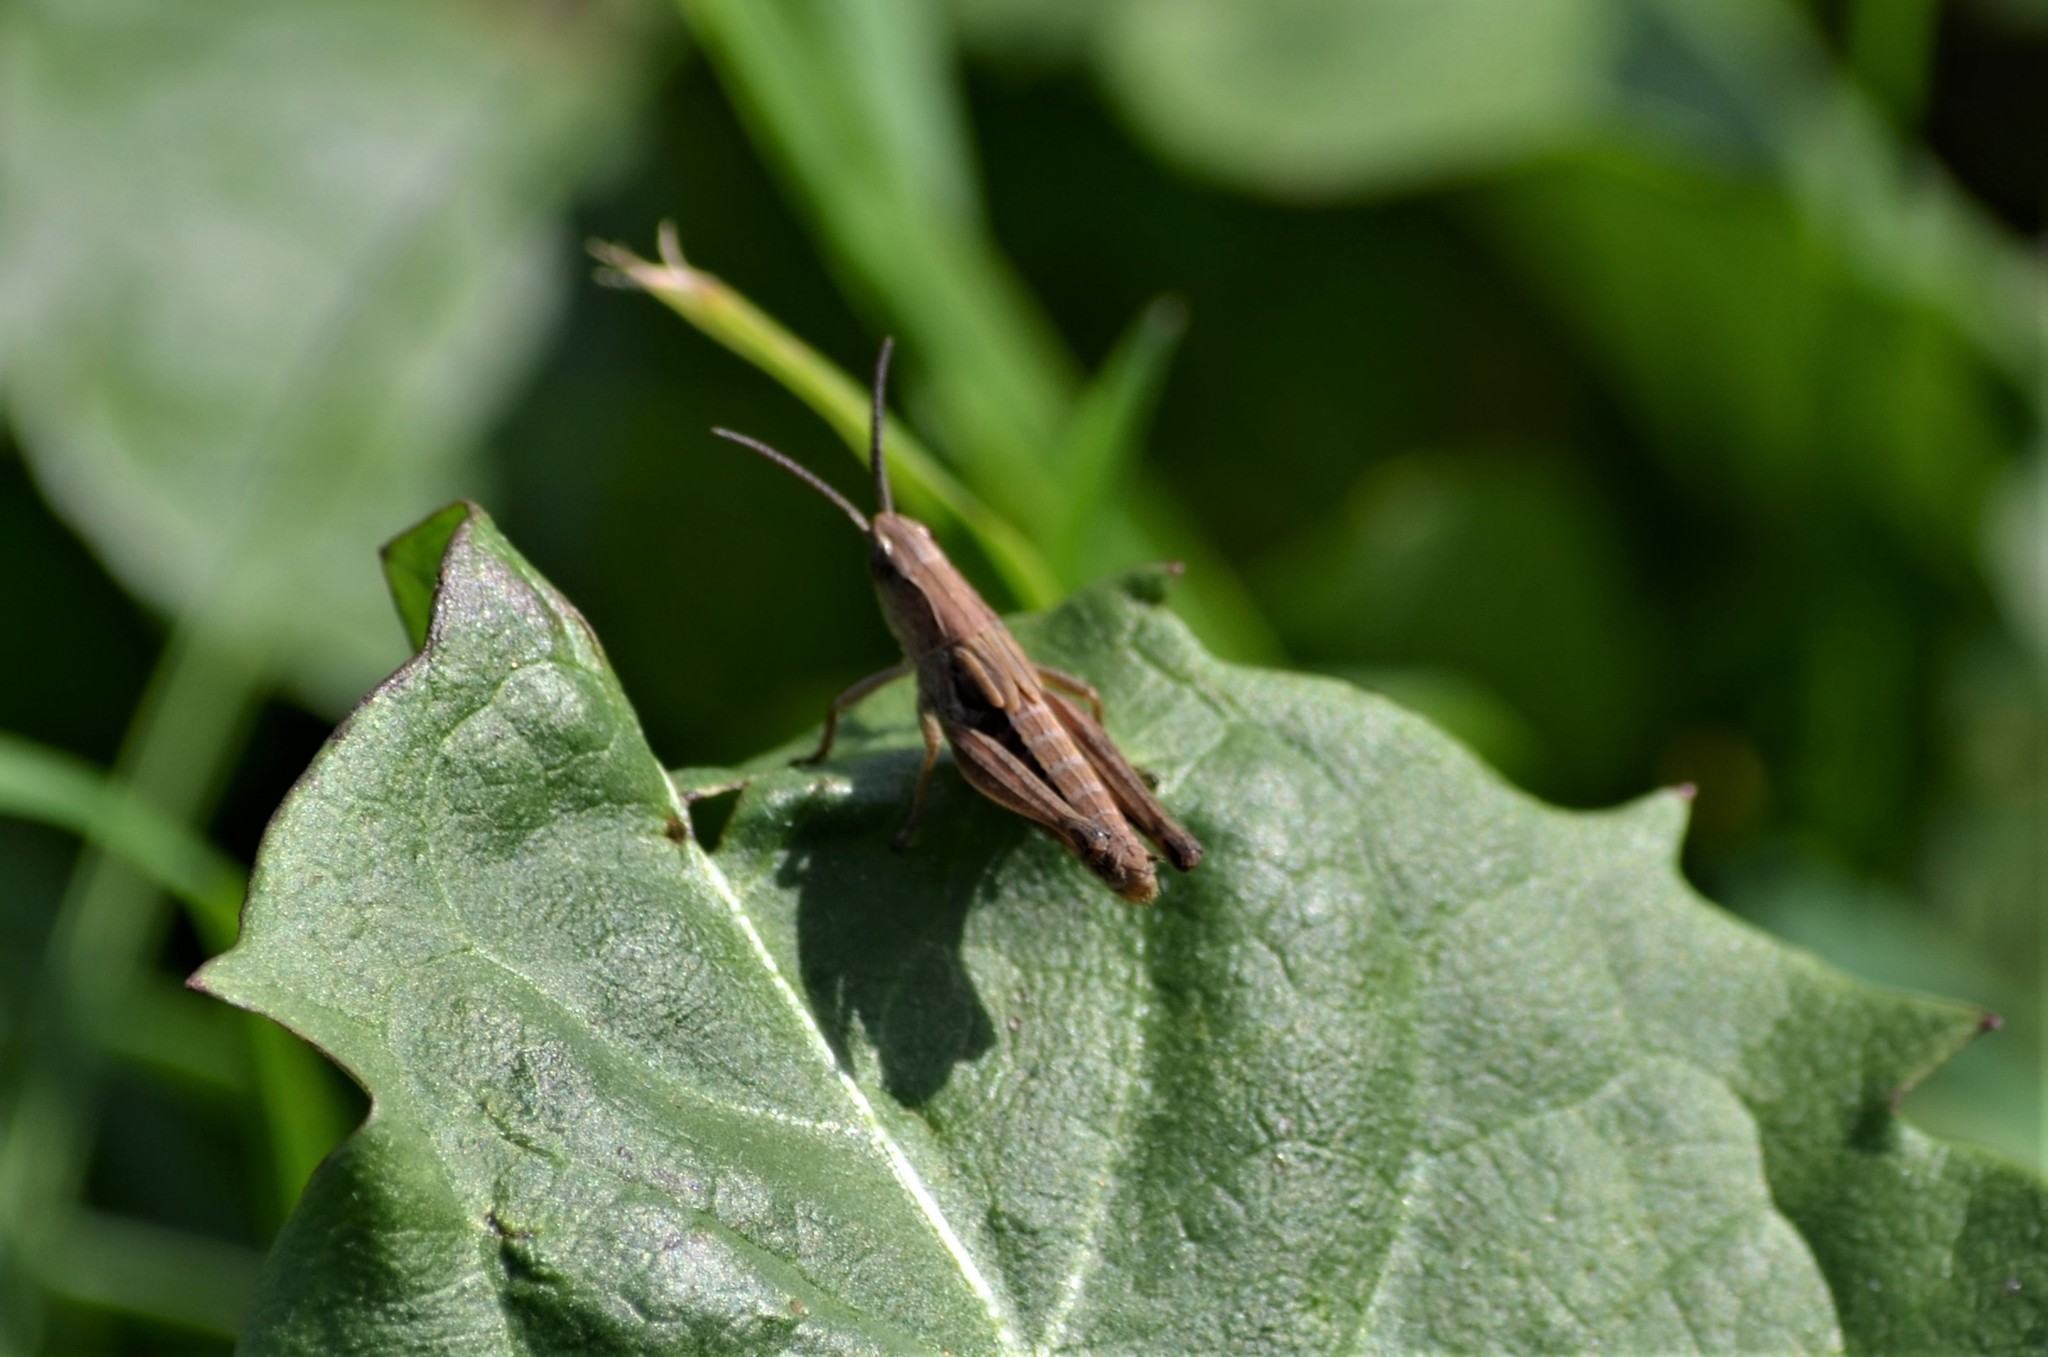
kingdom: Animalia
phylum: Arthropoda
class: Insecta
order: Orthoptera
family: Acrididae
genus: Chorthippus
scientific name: Chorthippus dorsatus
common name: Steppe grasshopper
